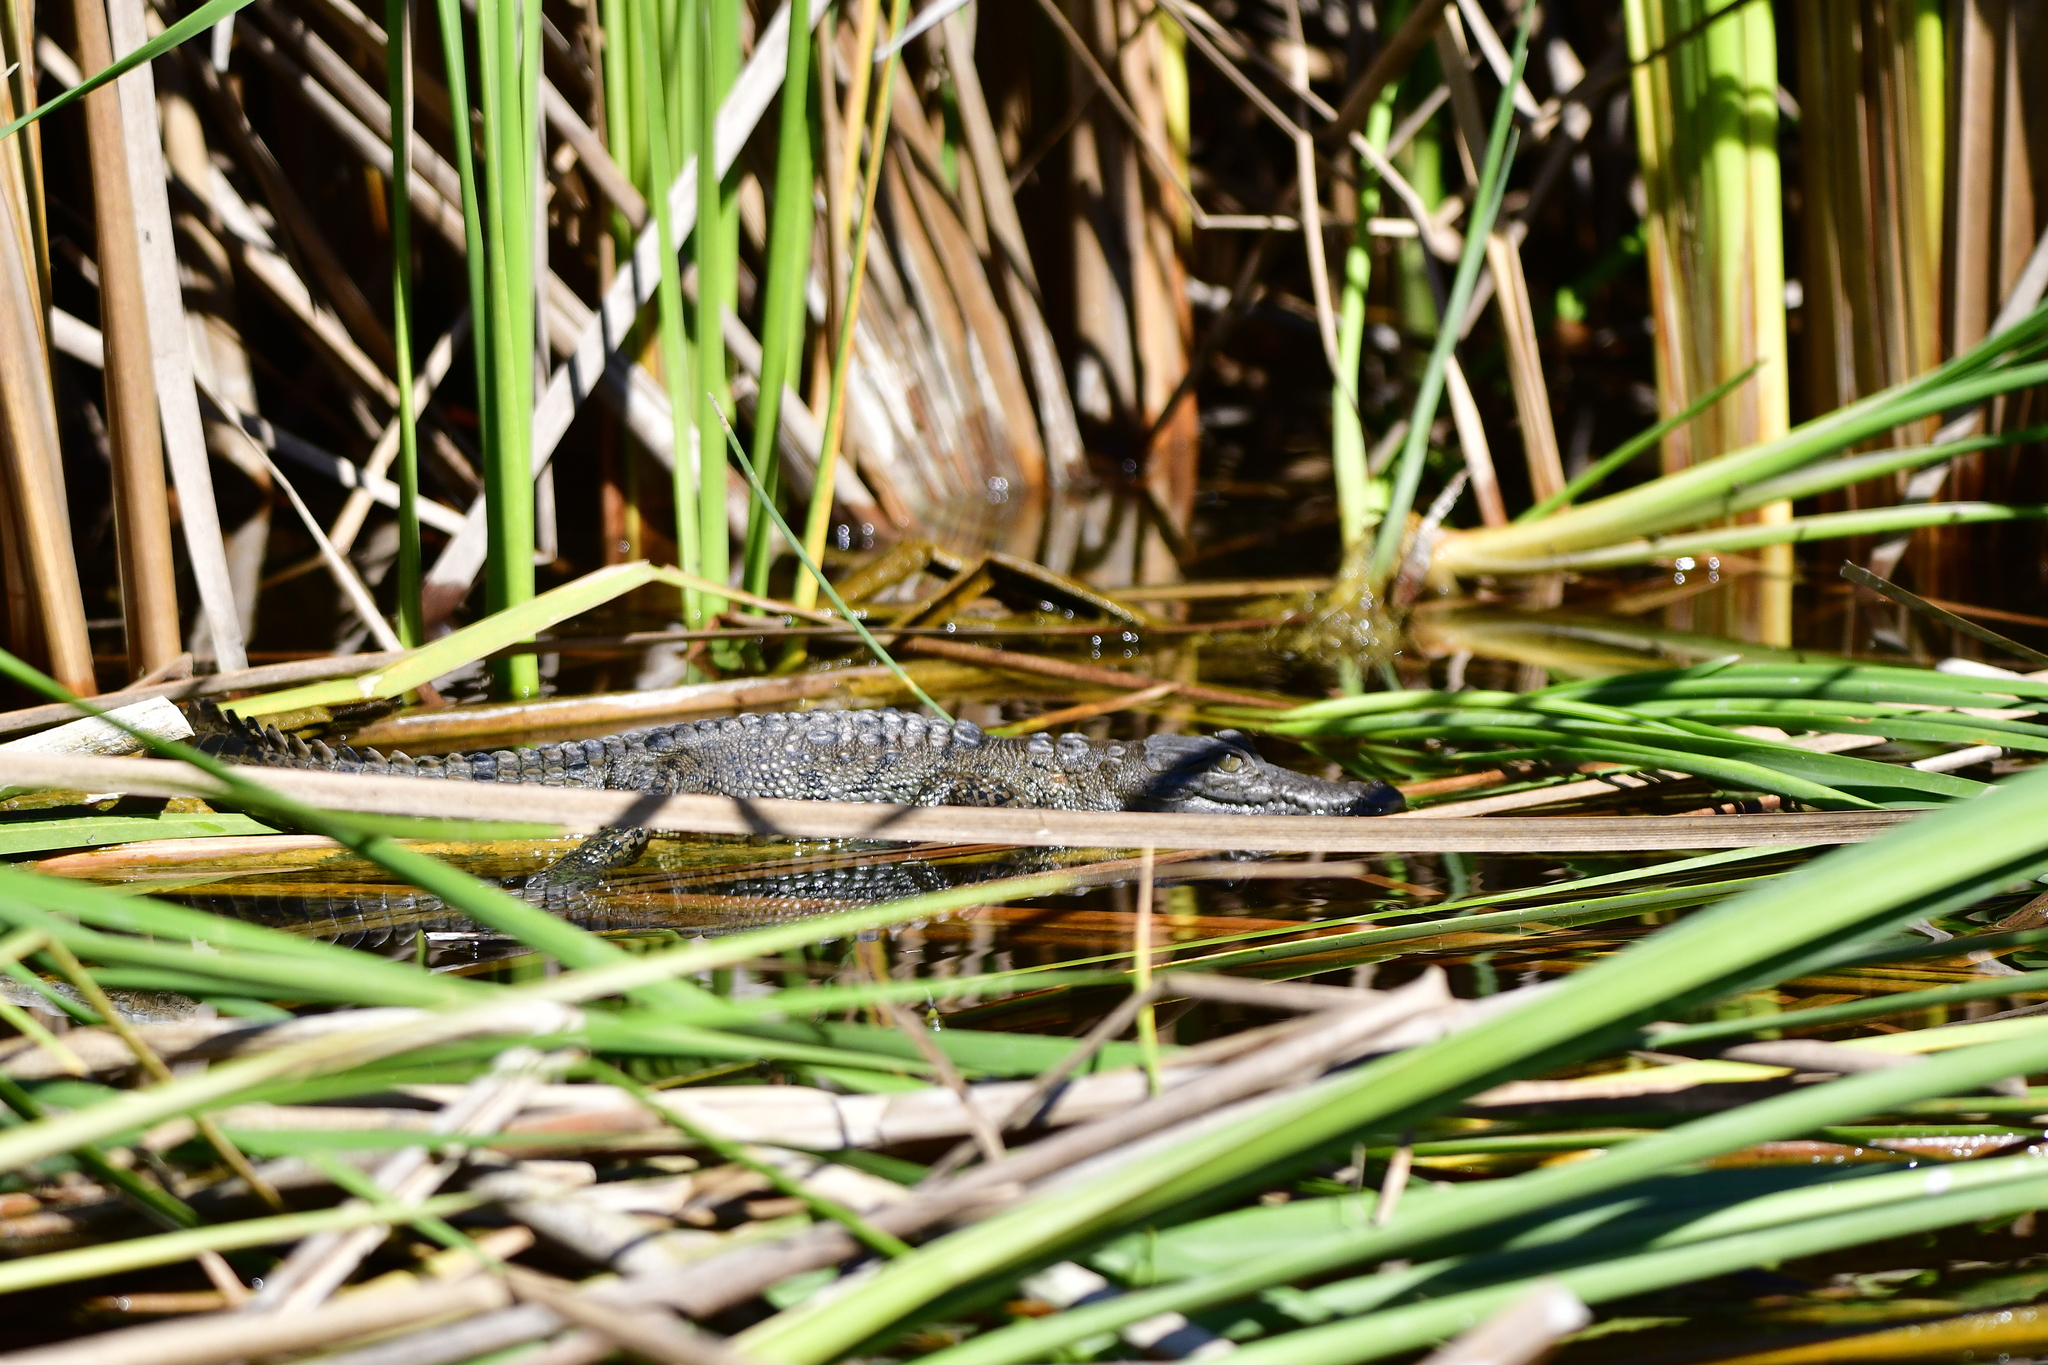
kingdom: Animalia
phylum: Chordata
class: Crocodylia
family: Crocodylidae
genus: Crocodylus
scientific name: Crocodylus acutus
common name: American crocodile
